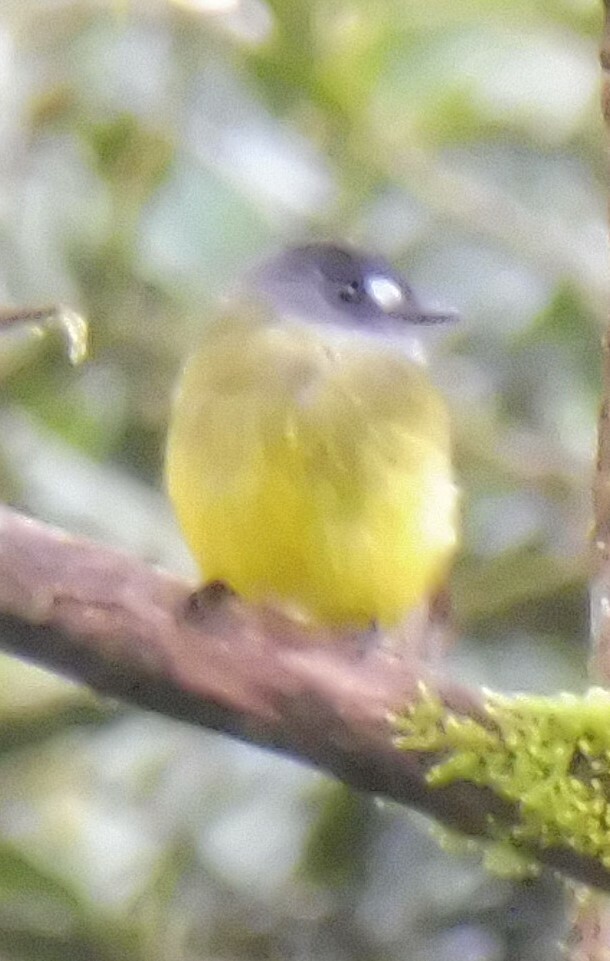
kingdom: Animalia
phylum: Chordata
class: Aves
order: Passeriformes
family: Tyrannidae
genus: Myiotriccus
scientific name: Myiotriccus ornatus
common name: Ornate flycatcher
